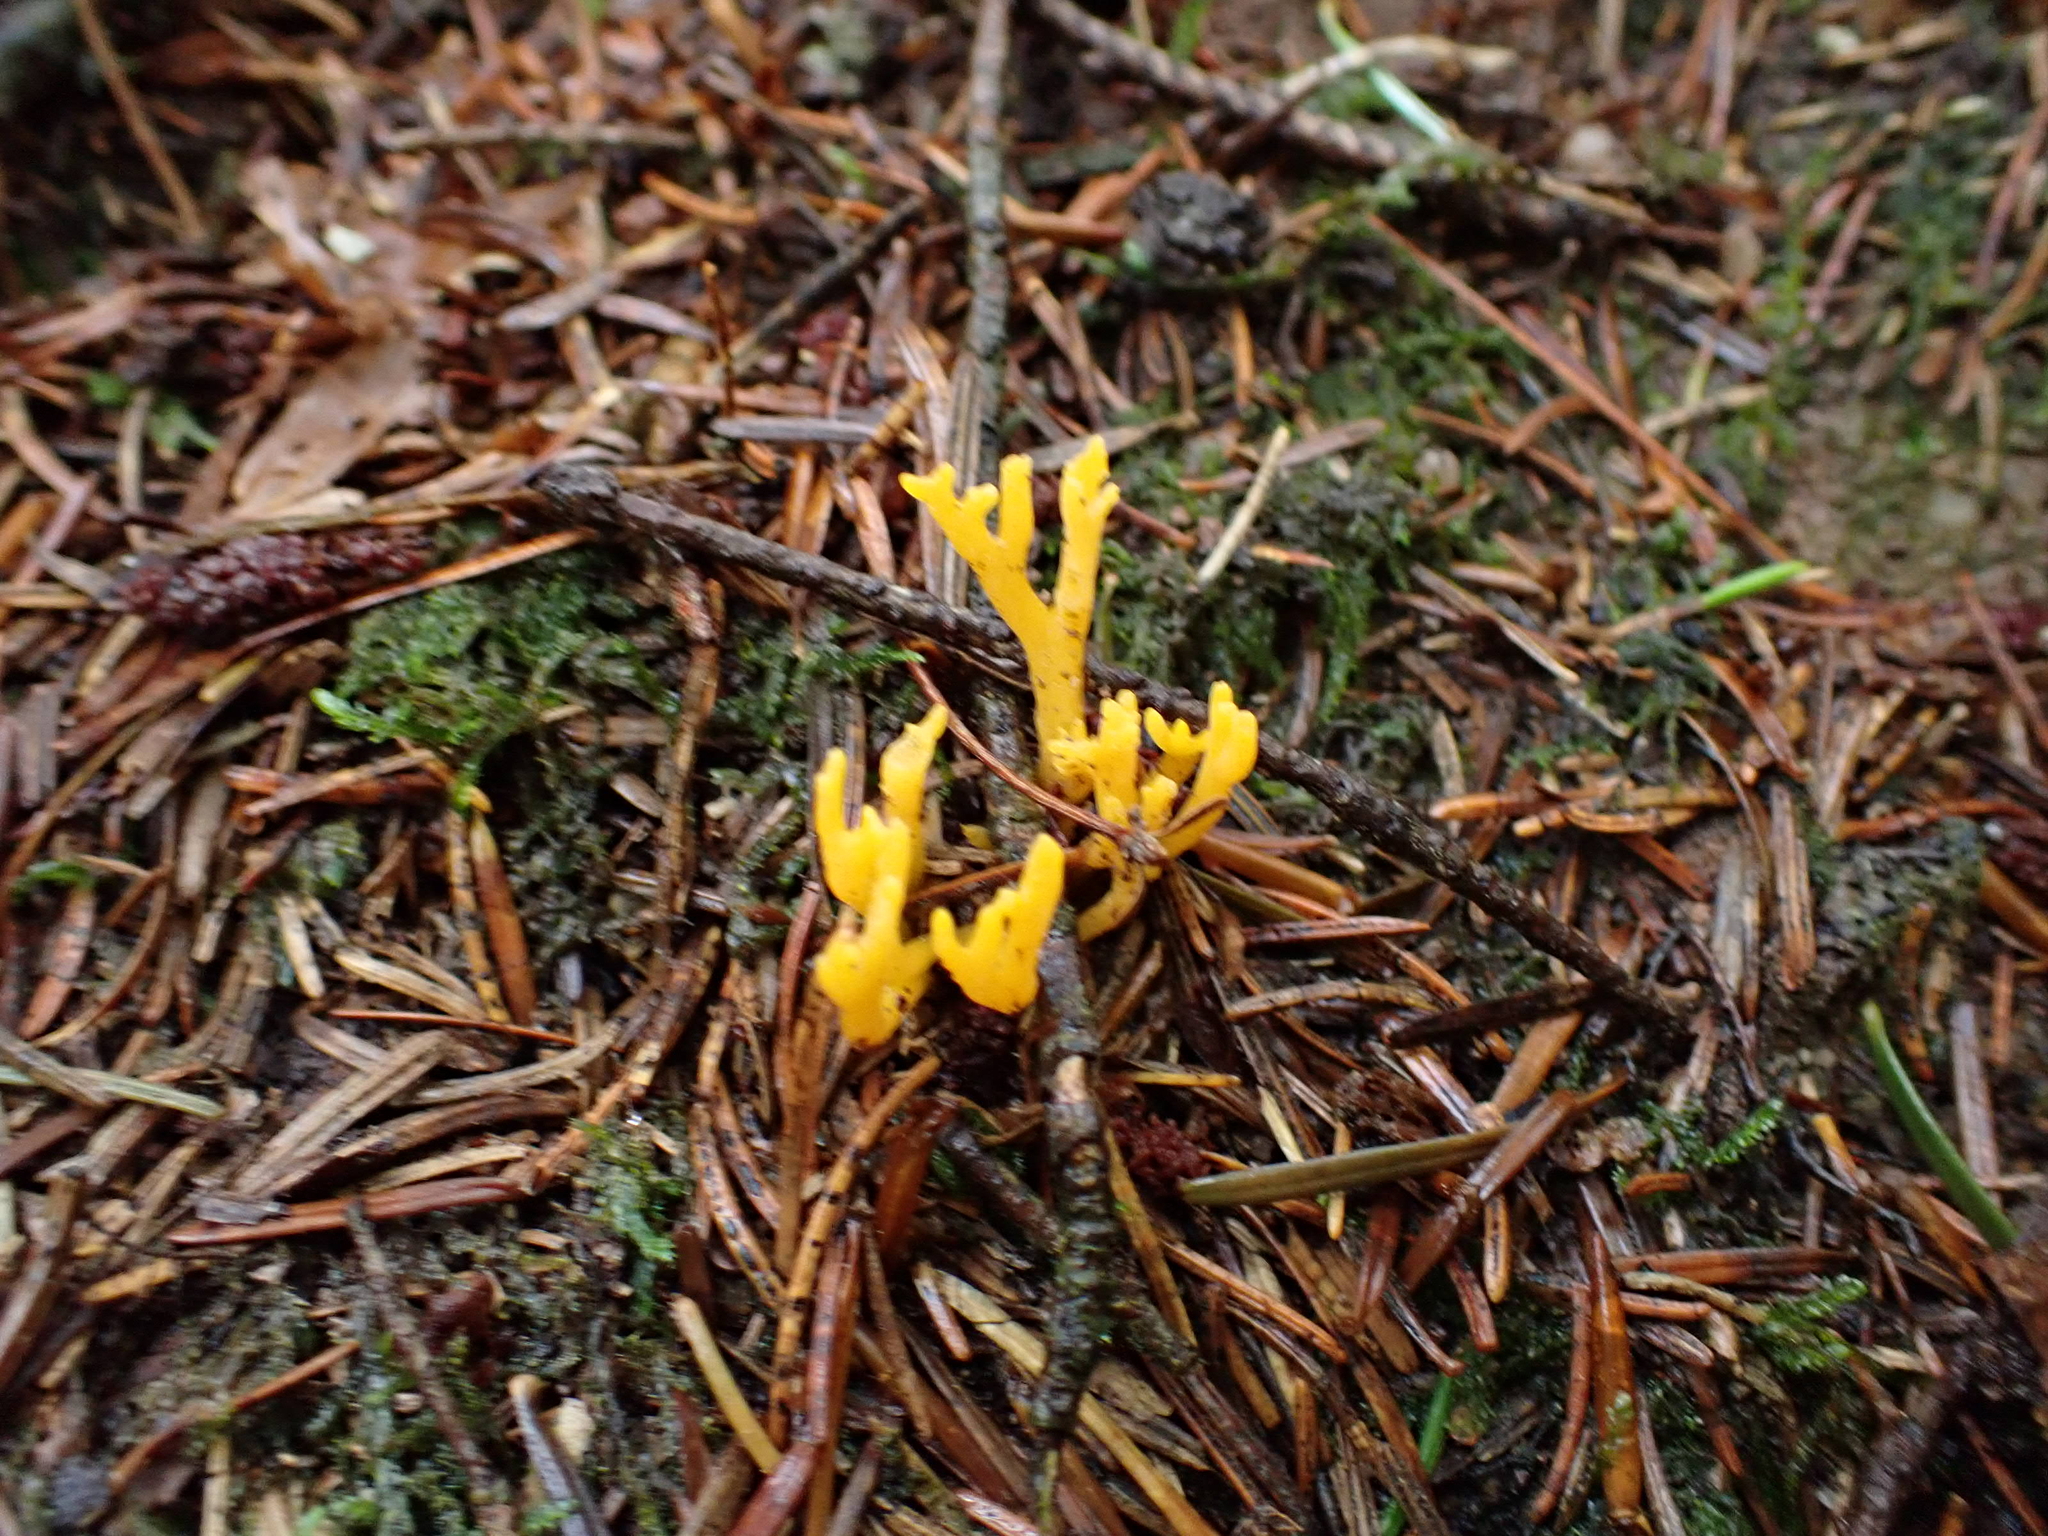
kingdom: Fungi
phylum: Basidiomycota
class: Dacrymycetes
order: Dacrymycetales
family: Dacrymycetaceae
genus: Calocera
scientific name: Calocera viscosa
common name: Yellow stagshorn
